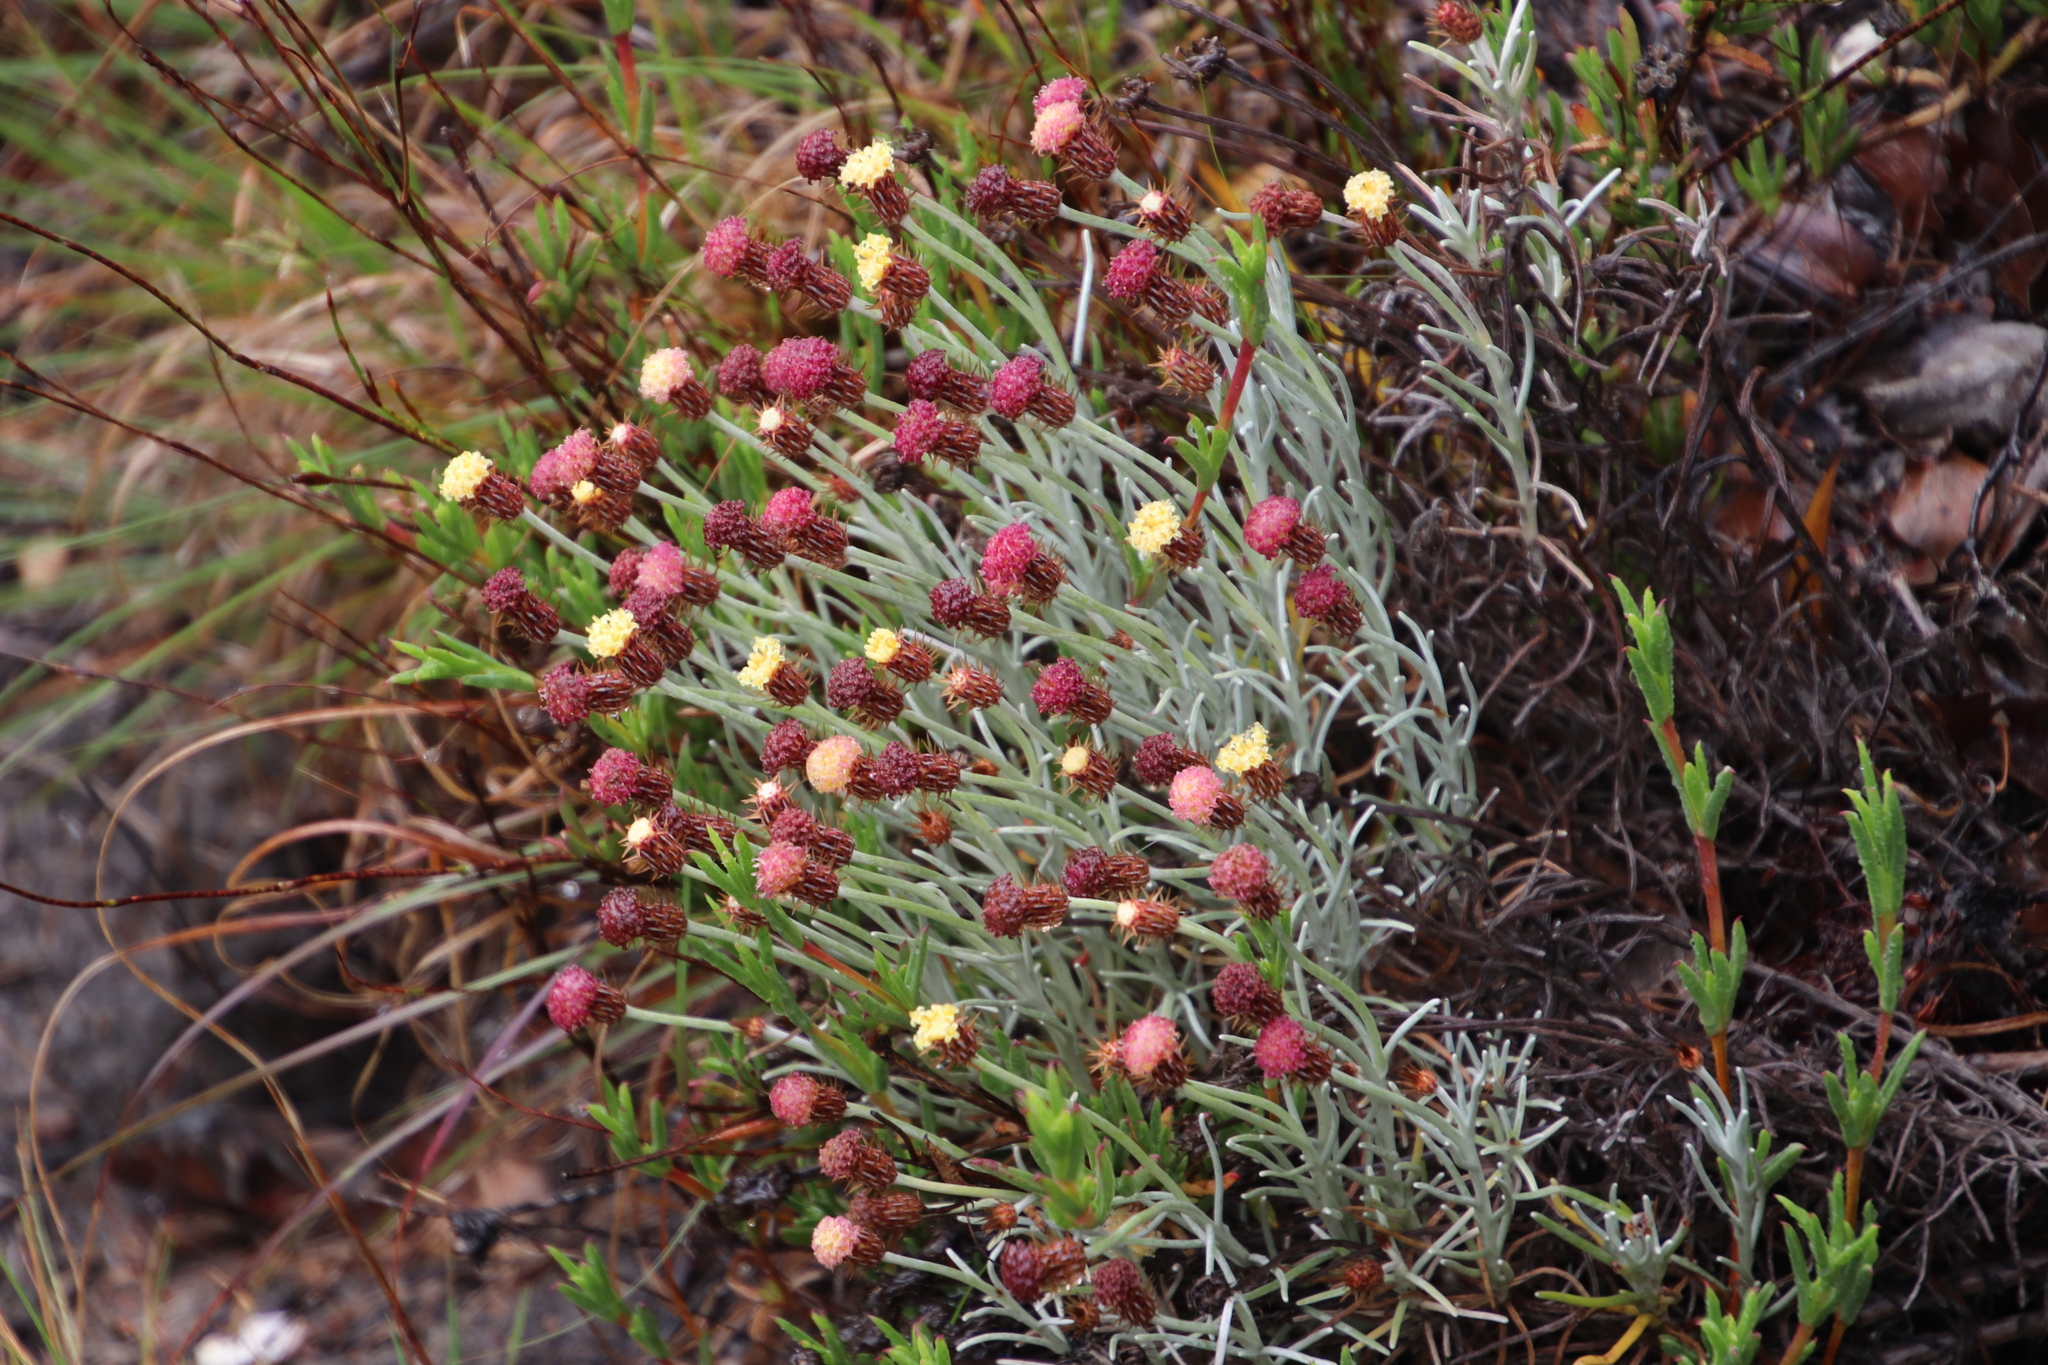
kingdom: Plantae
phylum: Tracheophyta
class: Magnoliopsida
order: Asterales
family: Asteraceae
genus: Syncarpha
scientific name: Syncarpha gnaphaloides
